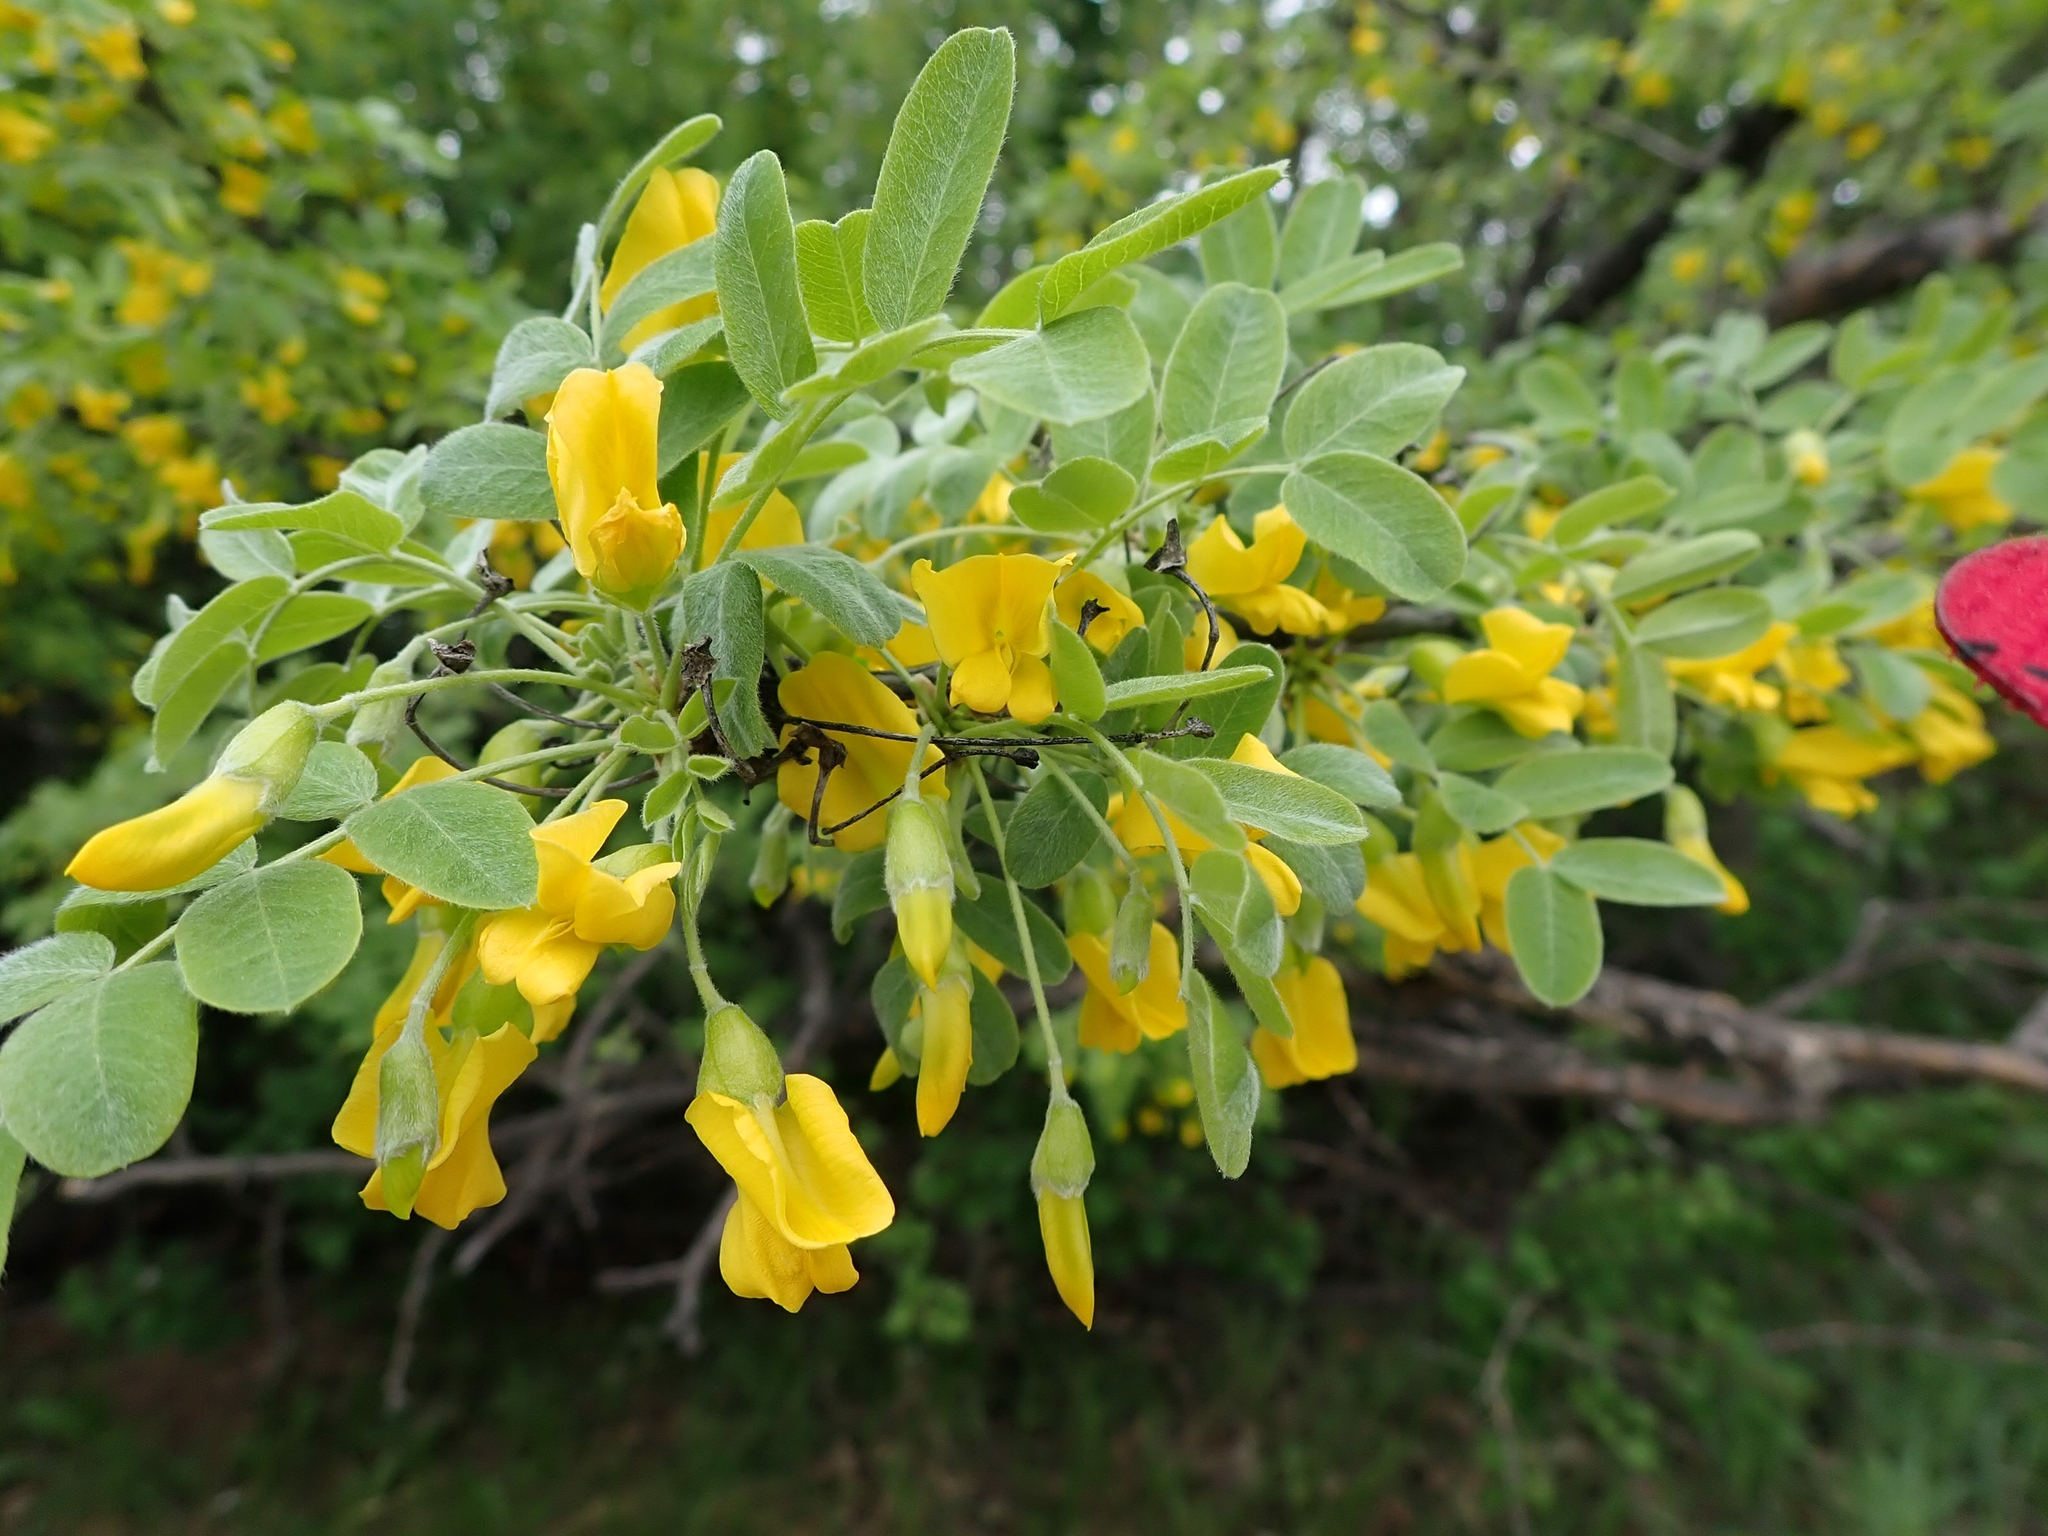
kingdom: Plantae
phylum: Tracheophyta
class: Magnoliopsida
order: Fabales
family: Fabaceae
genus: Caragana
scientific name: Caragana arborescens
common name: Siberian peashrub
